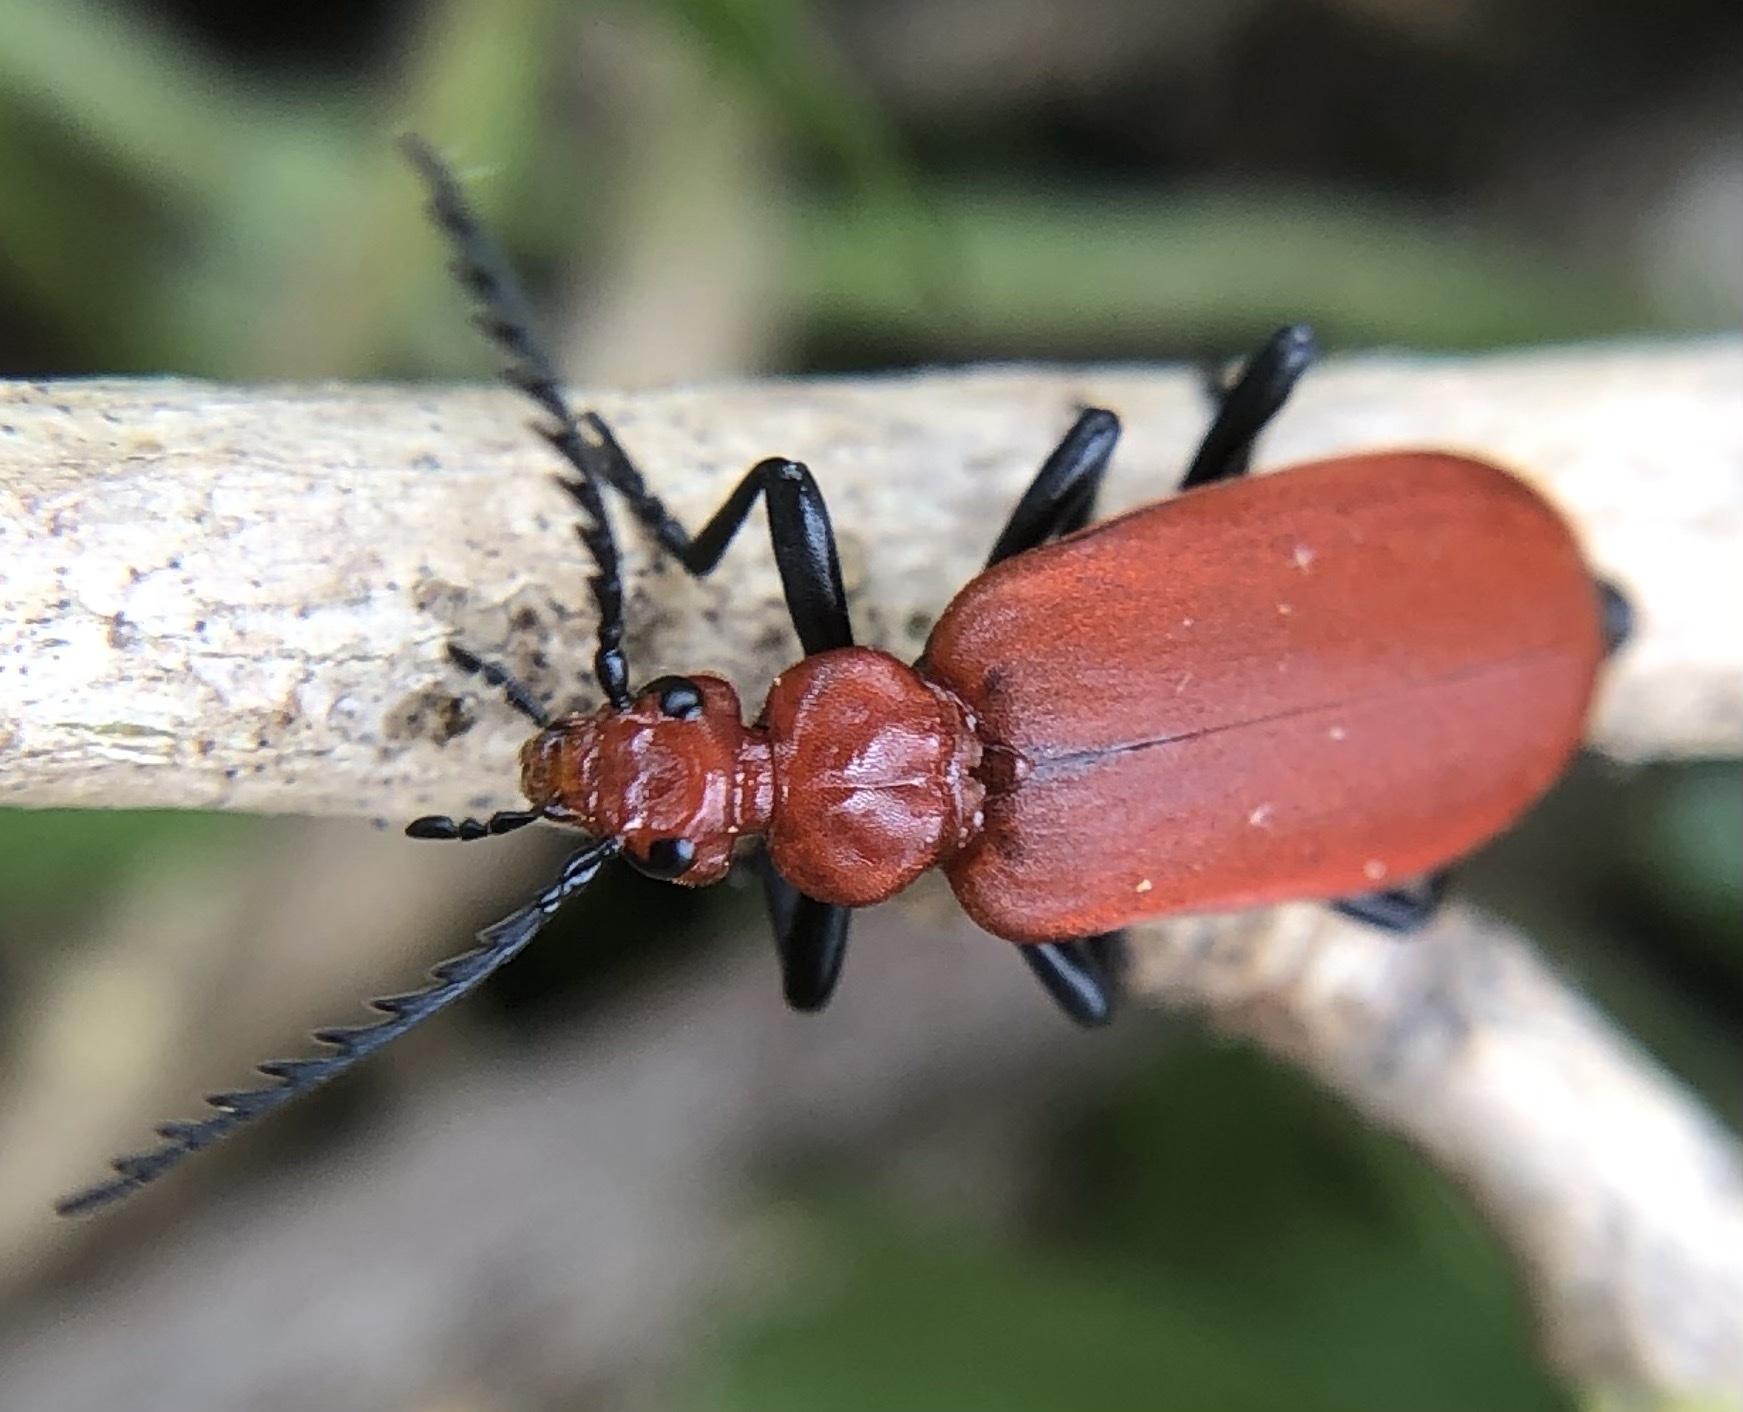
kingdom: Animalia
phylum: Arthropoda
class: Insecta
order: Coleoptera
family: Pyrochroidae
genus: Pyrochroa
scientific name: Pyrochroa serraticornis
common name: Red-headed cardinal beetle
